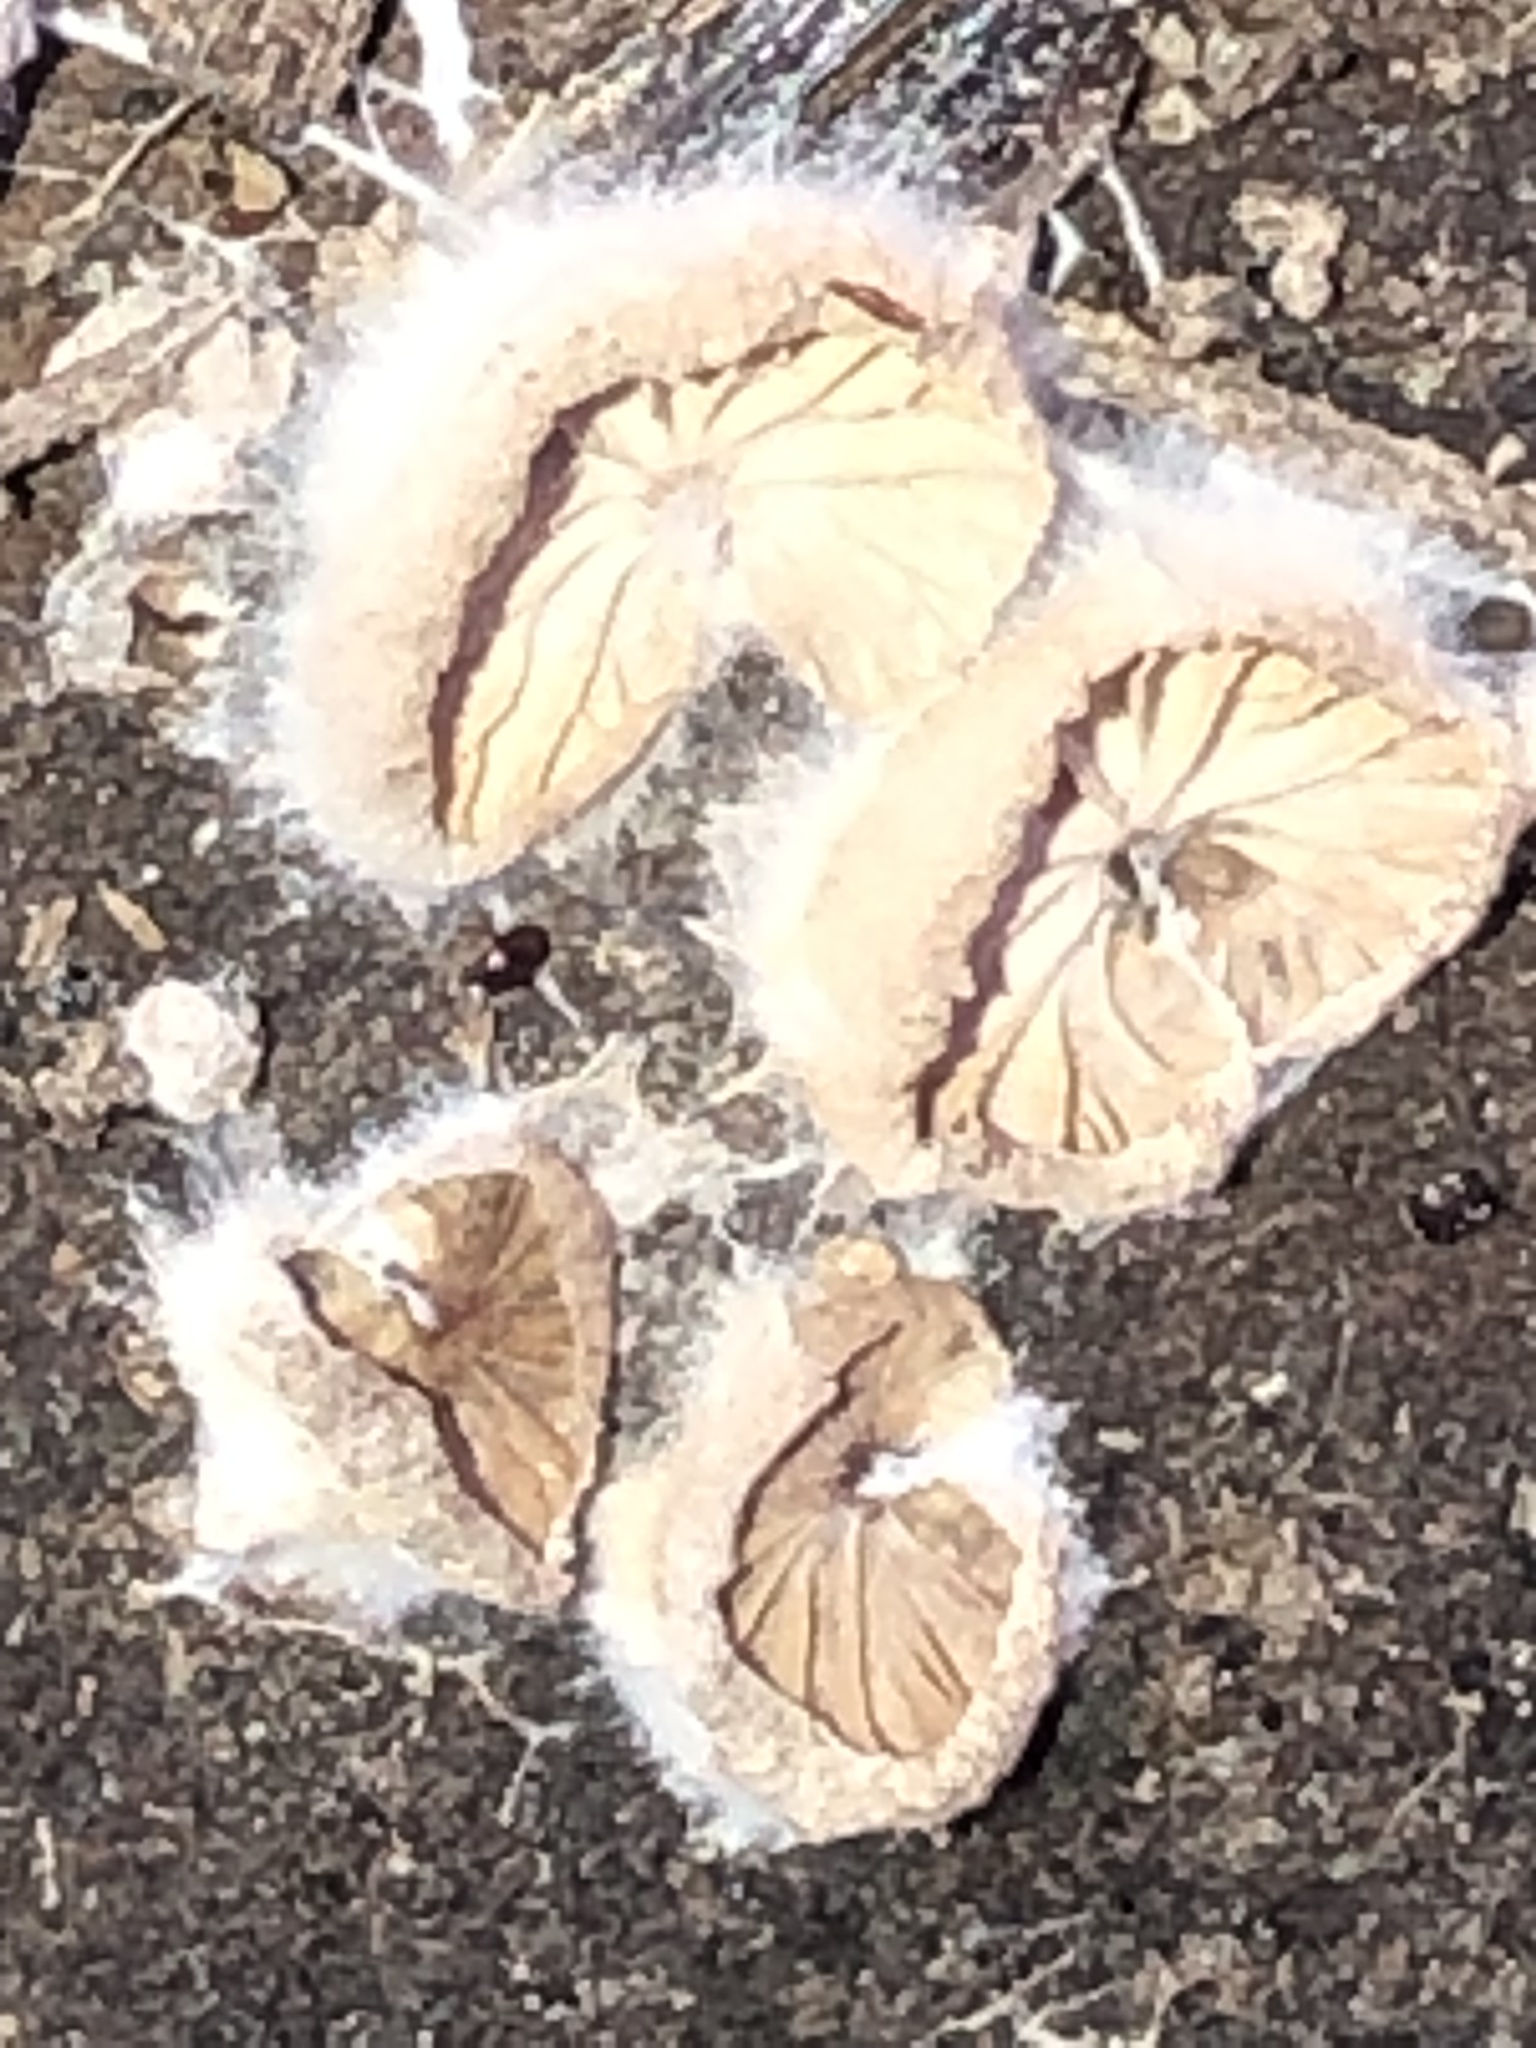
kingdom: Fungi
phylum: Basidiomycota
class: Agaricomycetes
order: Agaricales
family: Schizophyllaceae
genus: Schizophyllum
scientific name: Schizophyllum commune
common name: Common porecrust
